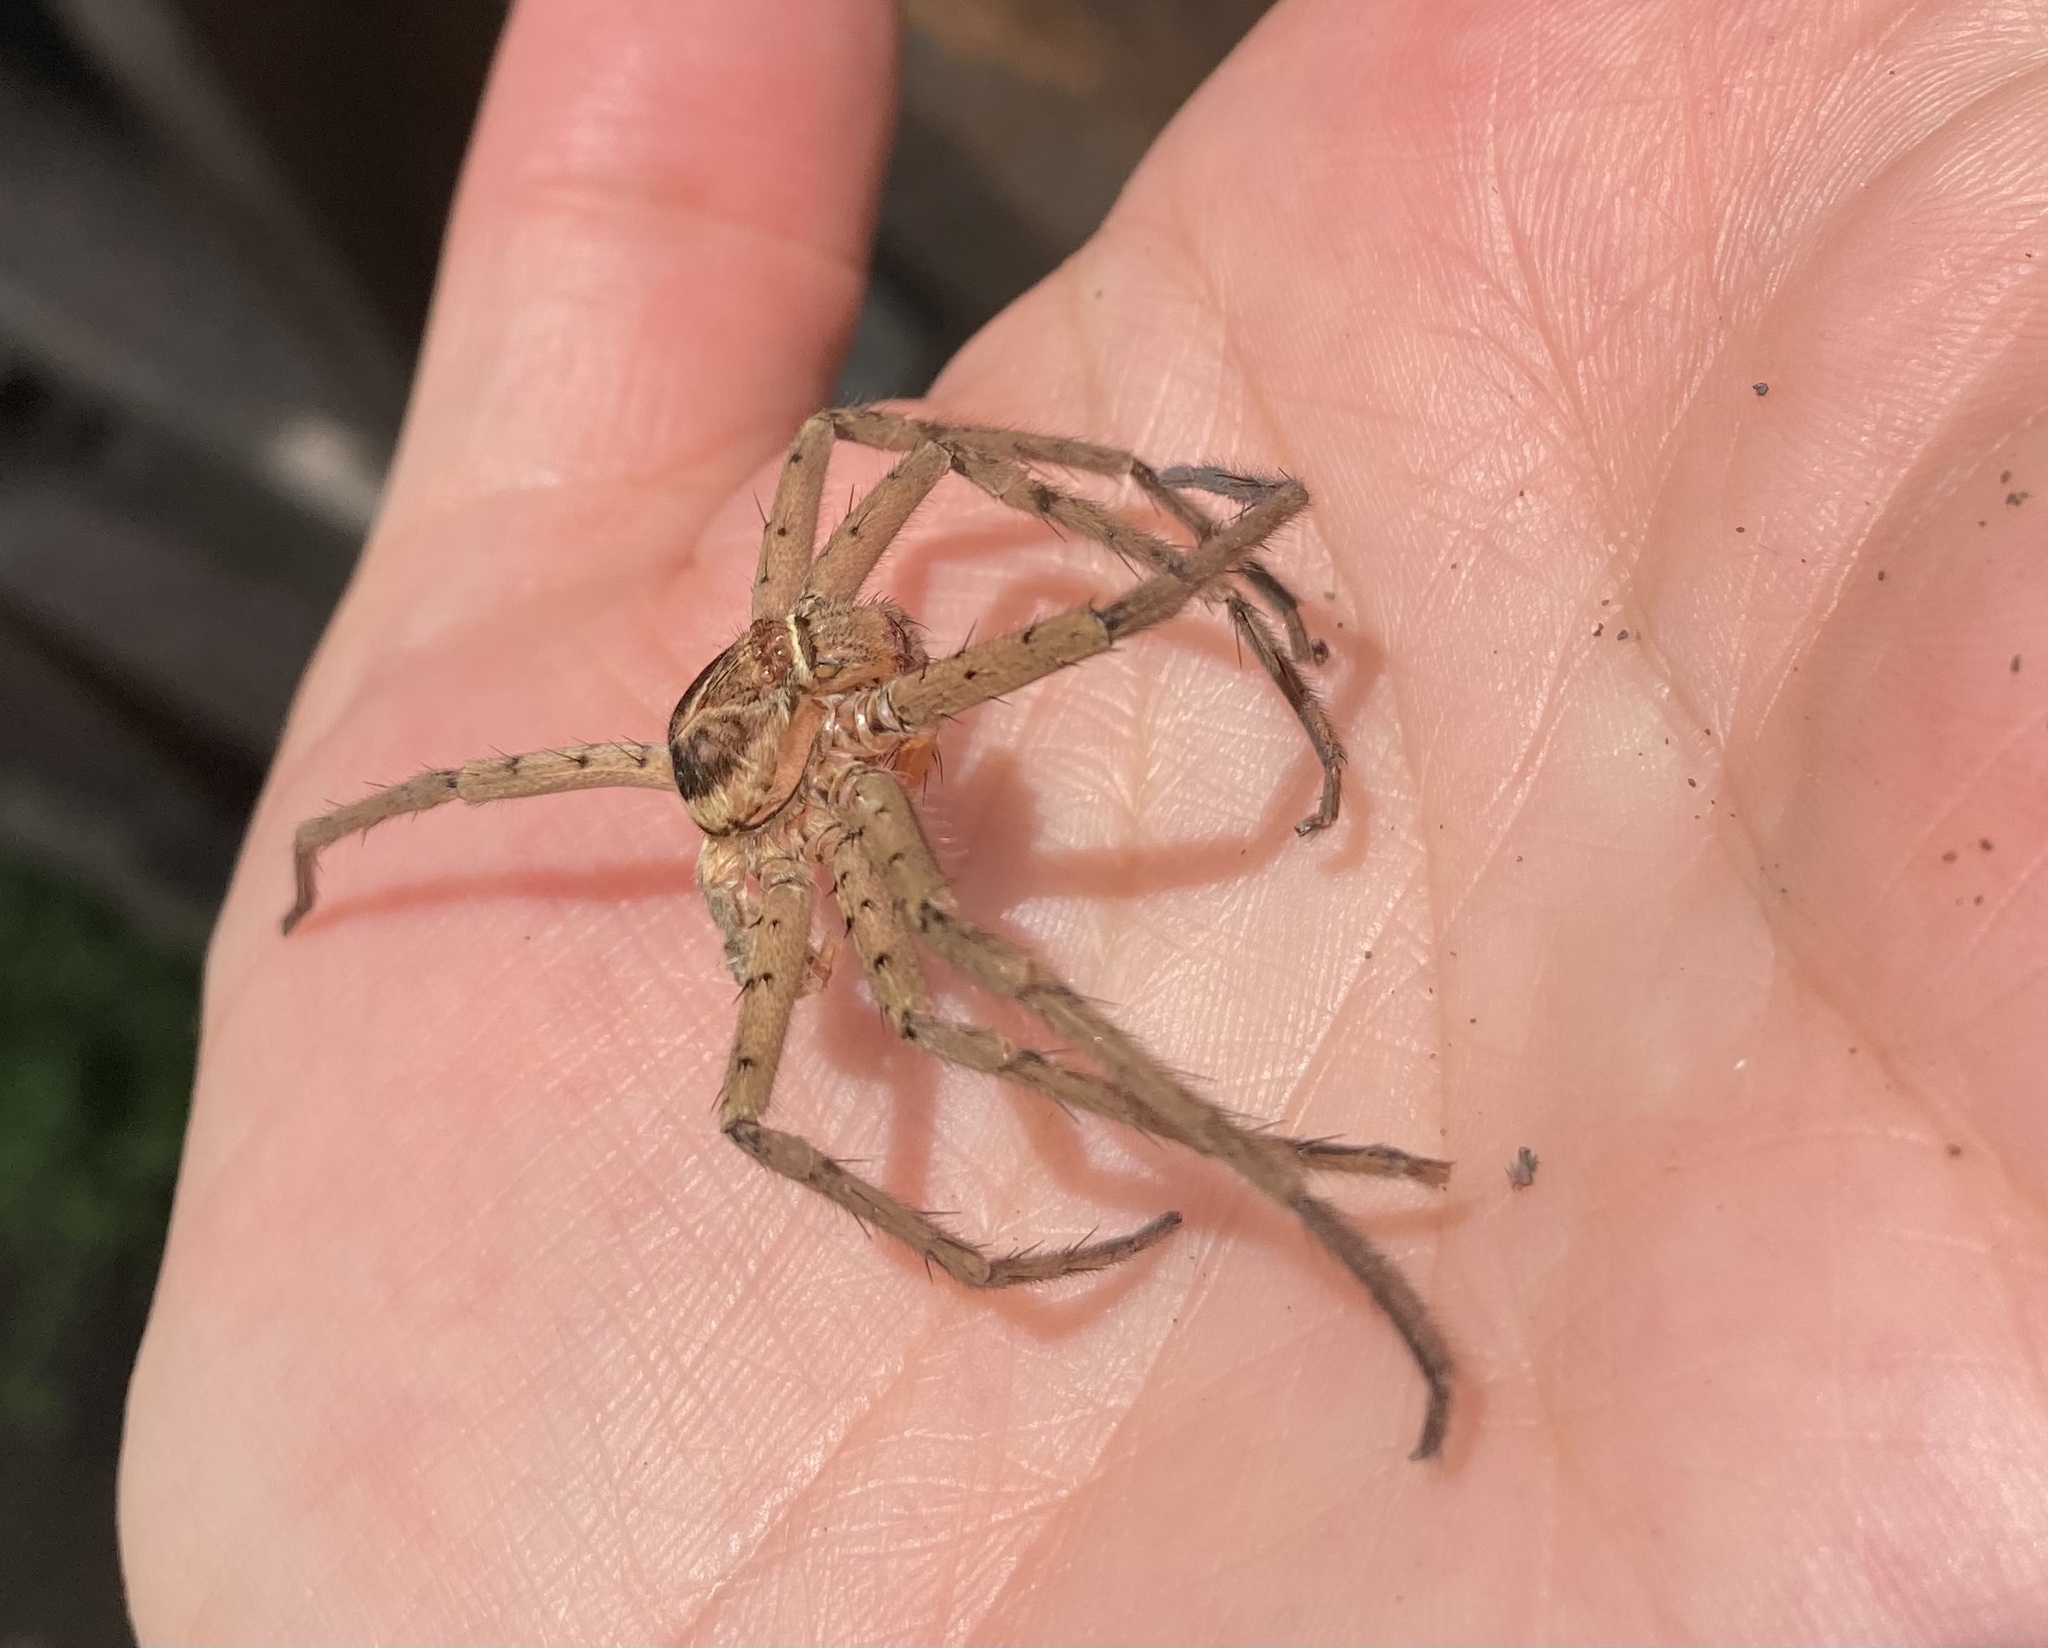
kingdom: Animalia
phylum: Arthropoda
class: Arachnida
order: Araneae
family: Sparassidae
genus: Heteropoda
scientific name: Heteropoda venatoria
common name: Huntsman spider
